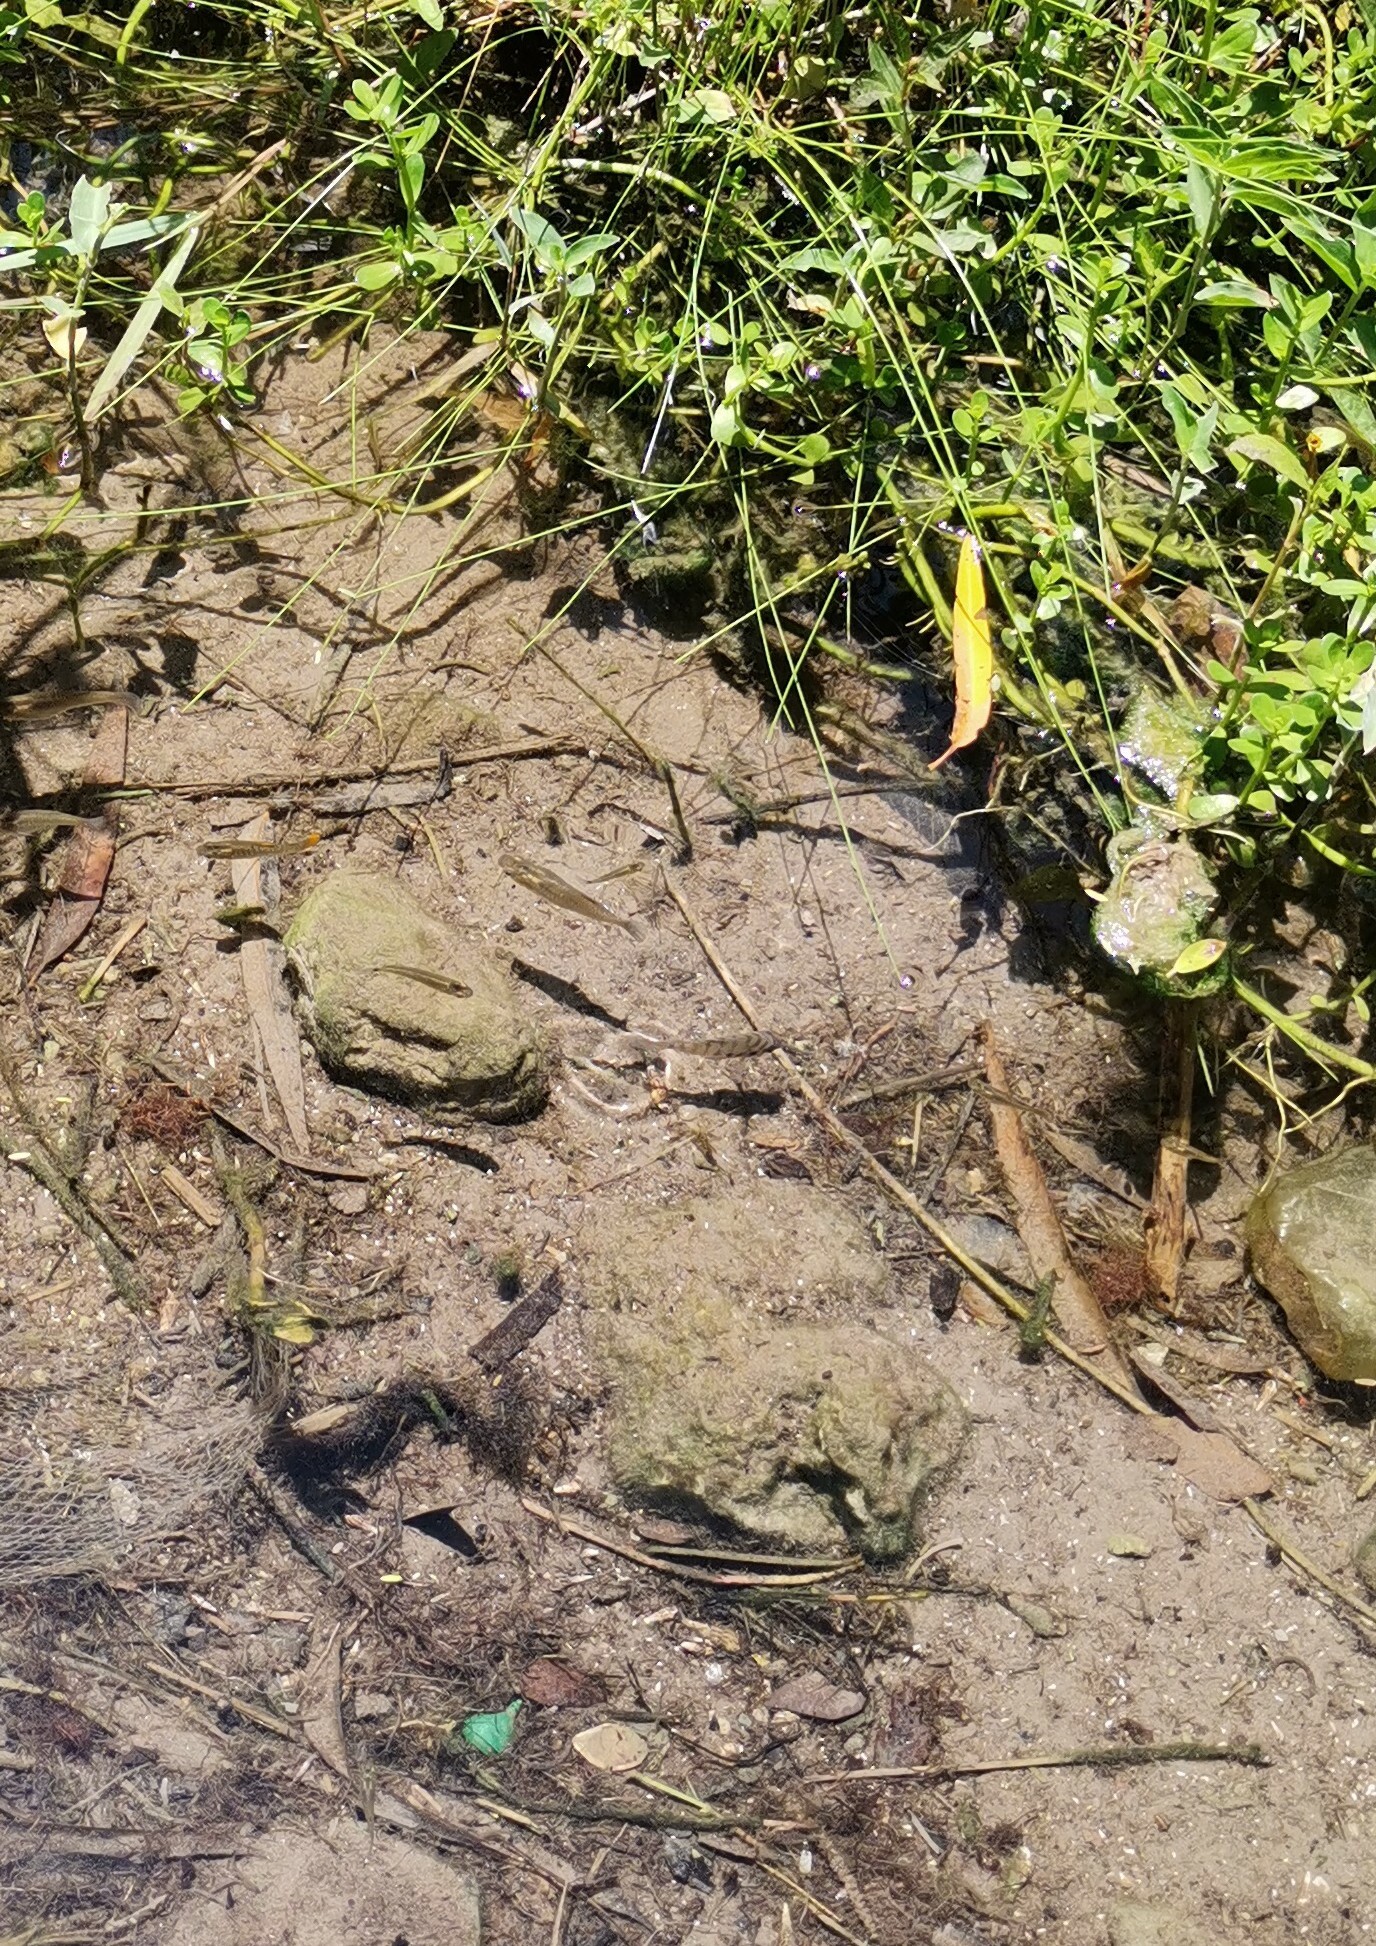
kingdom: Animalia
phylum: Chordata
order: Cyprinodontiformes
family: Poeciliidae
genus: Pseudoxiphophorus
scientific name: Pseudoxiphophorus bimaculatus
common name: Twospot livebearer
